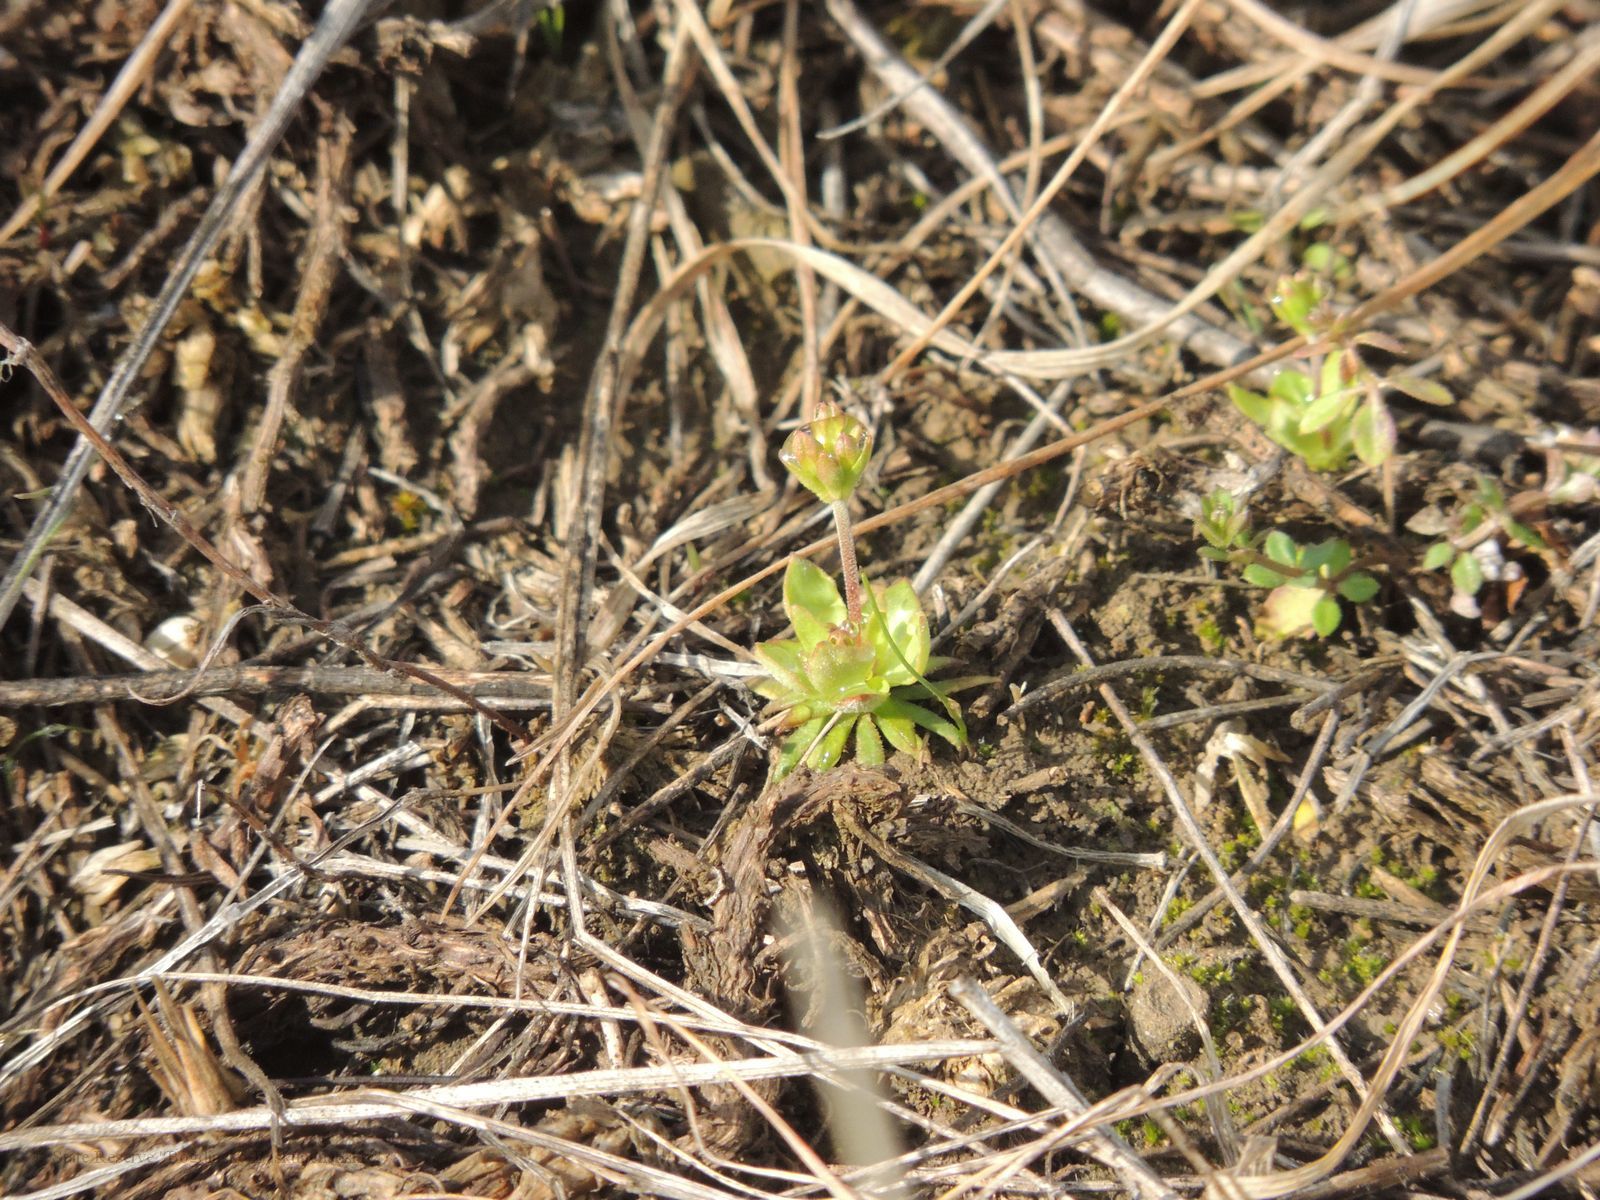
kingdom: Plantae
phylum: Tracheophyta
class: Magnoliopsida
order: Ericales
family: Primulaceae
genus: Androsace
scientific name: Androsace elongata
